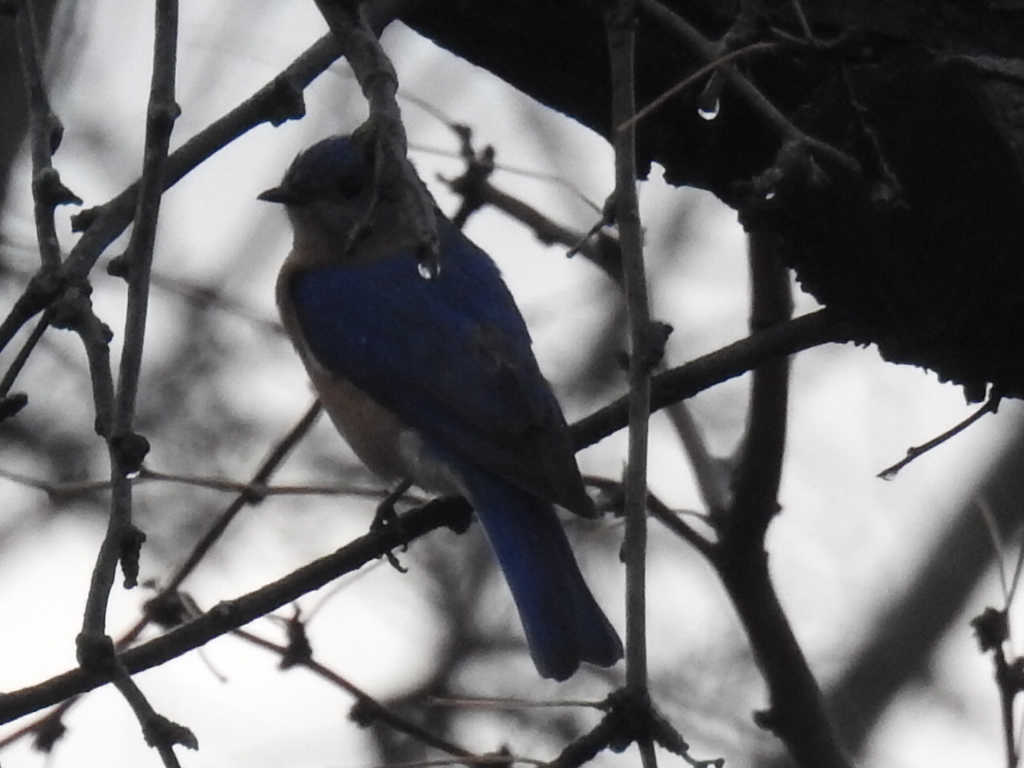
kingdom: Animalia
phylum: Chordata
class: Aves
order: Passeriformes
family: Turdidae
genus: Sialia
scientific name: Sialia sialis
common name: Eastern bluebird
